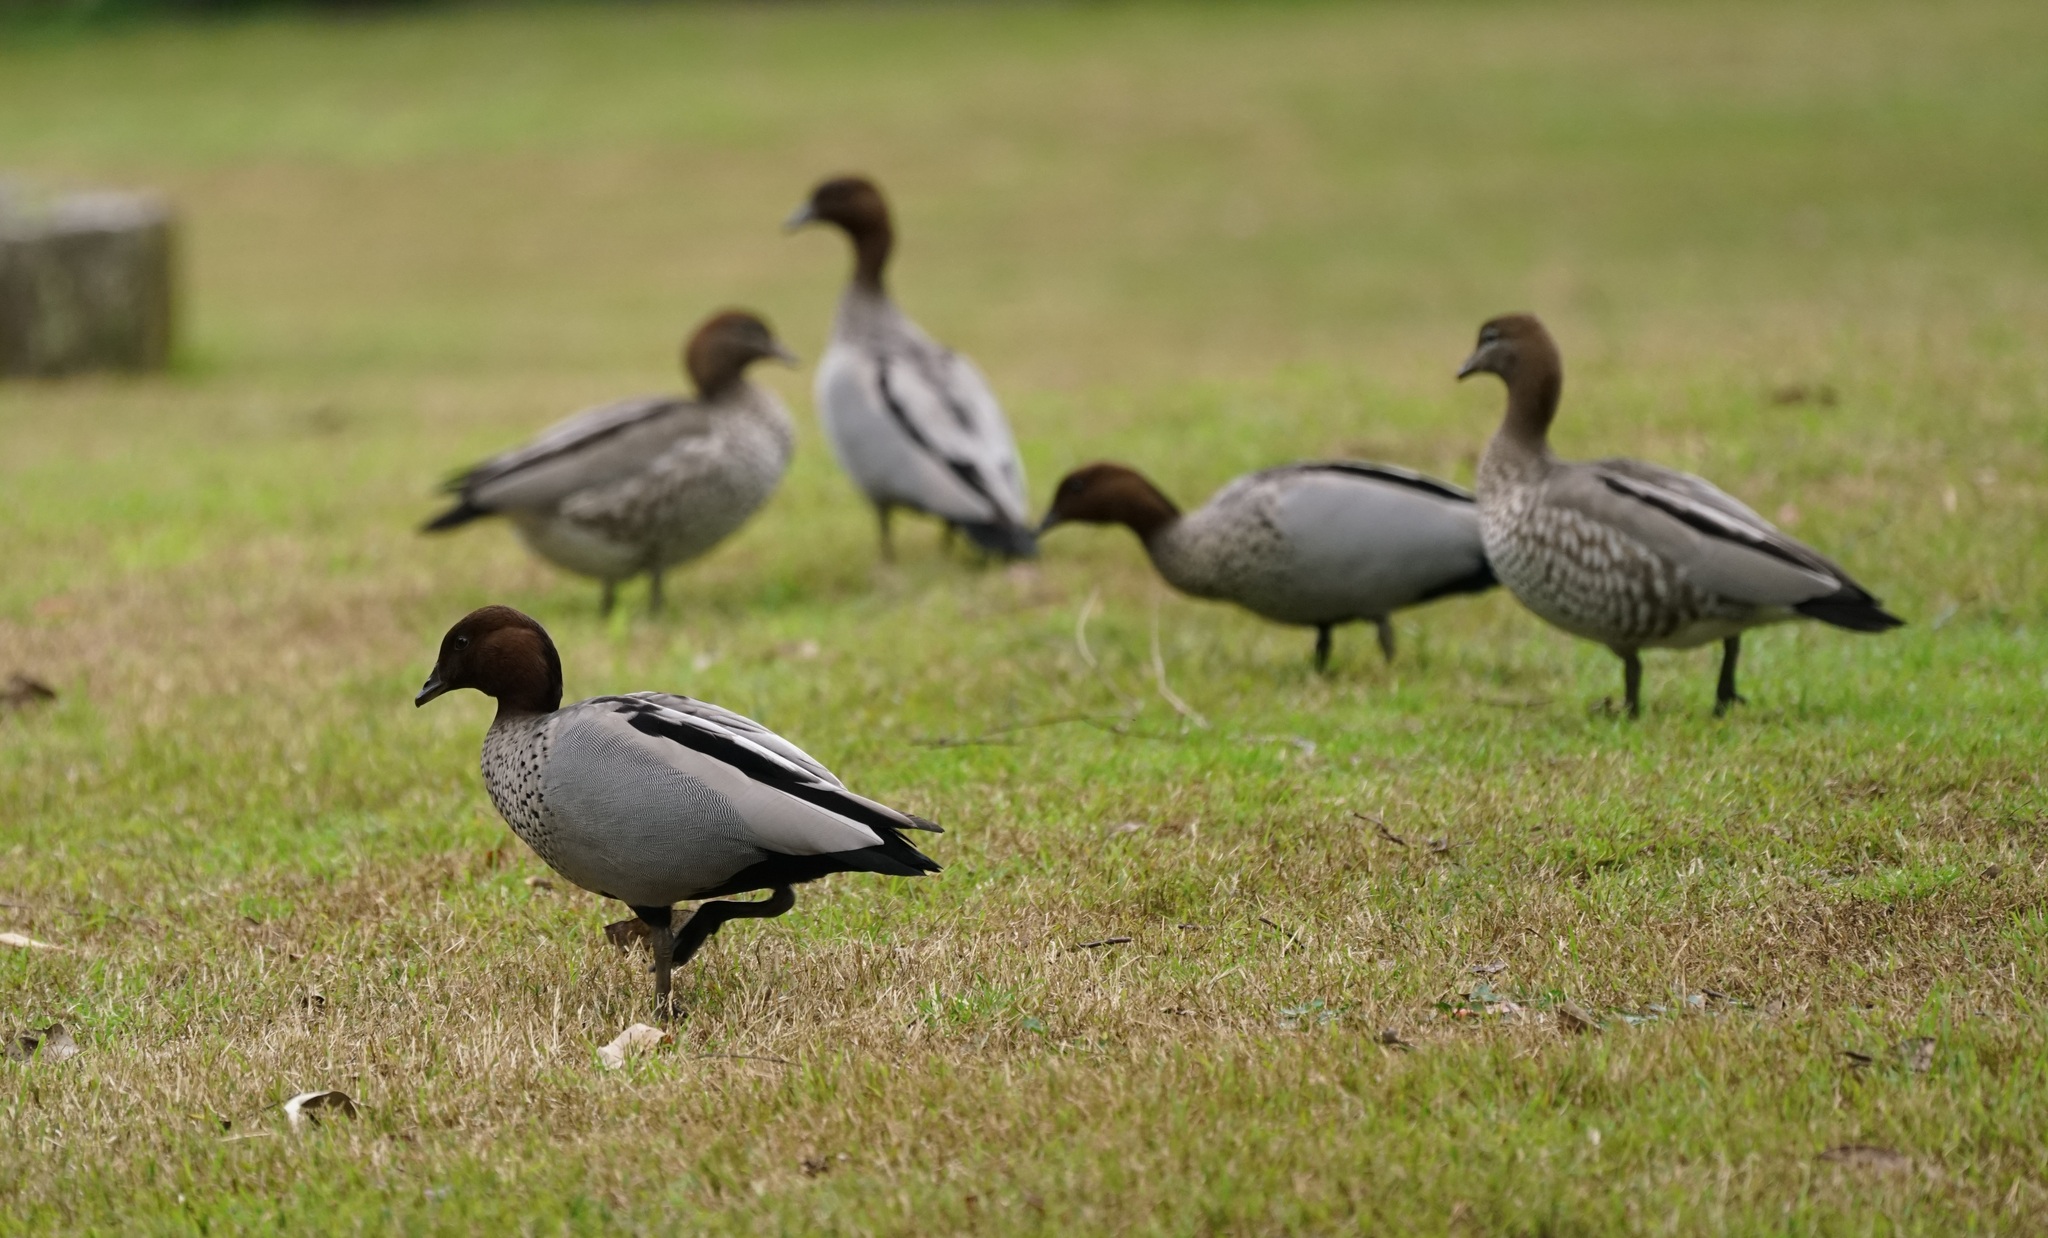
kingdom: Animalia
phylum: Chordata
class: Aves
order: Anseriformes
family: Anatidae
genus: Chenonetta
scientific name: Chenonetta jubata
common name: Maned duck
